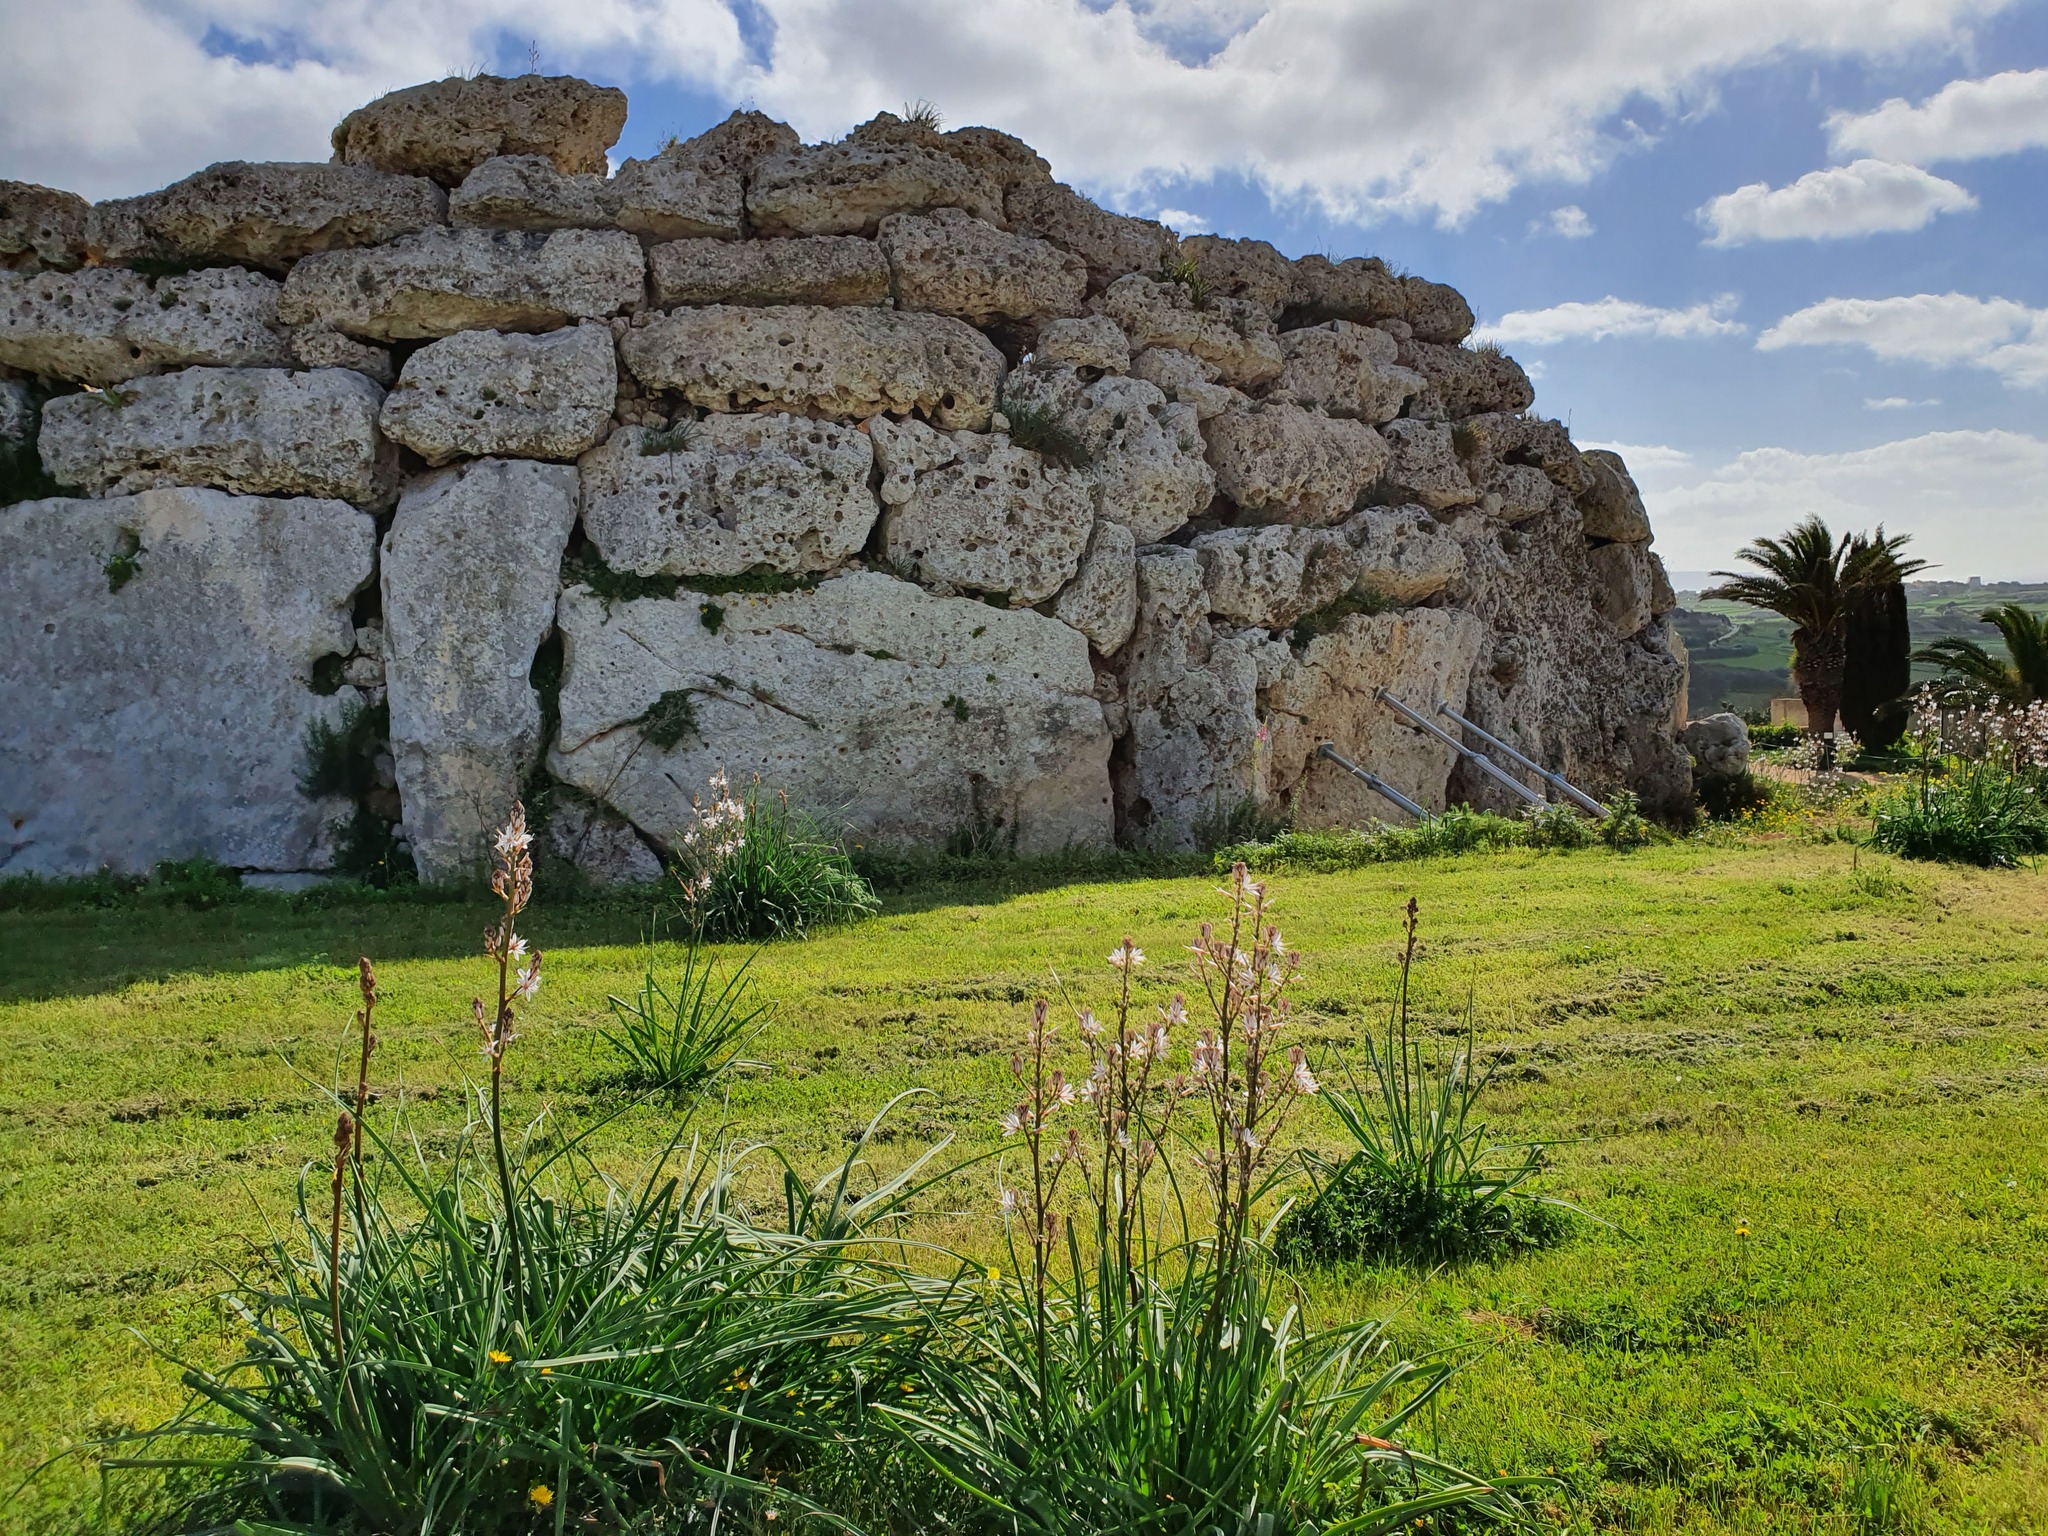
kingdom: Plantae
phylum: Tracheophyta
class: Liliopsida
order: Asparagales
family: Asphodelaceae
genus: Asphodelus
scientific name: Asphodelus ramosus
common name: Silverrod
